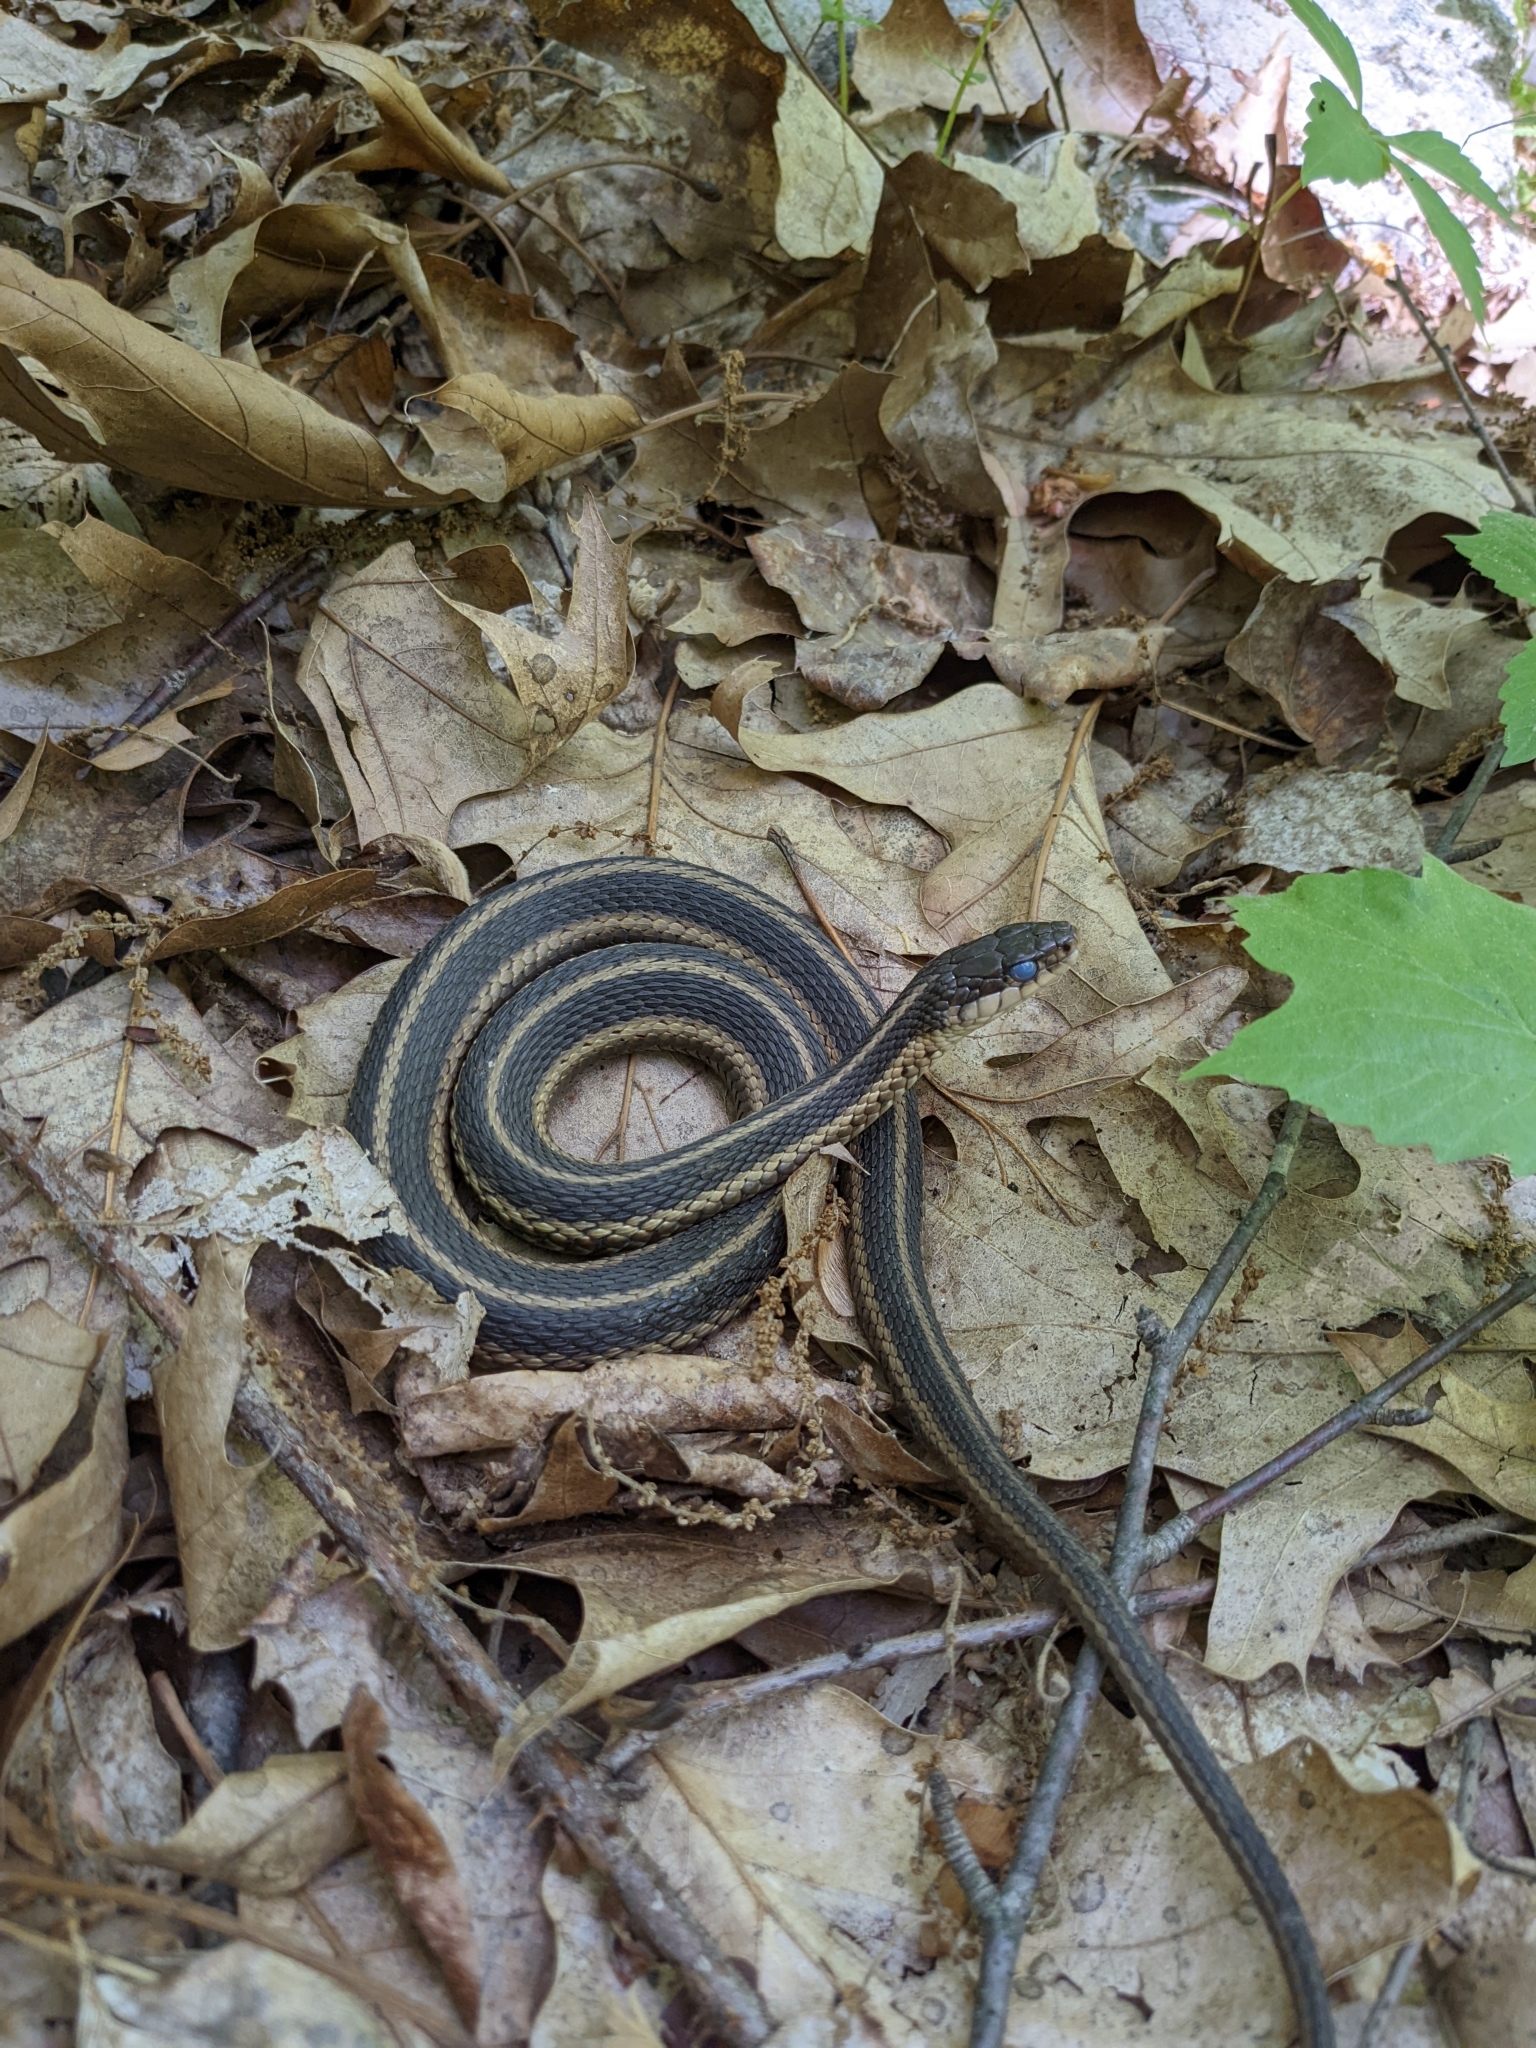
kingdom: Animalia
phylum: Chordata
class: Squamata
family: Colubridae
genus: Thamnophis
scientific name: Thamnophis sirtalis
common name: Common garter snake
